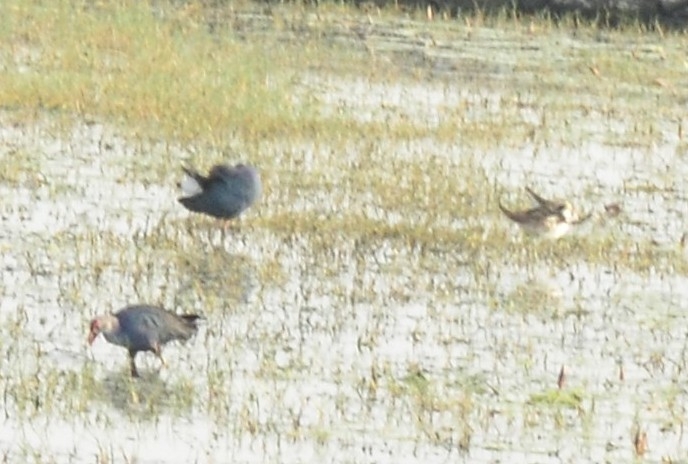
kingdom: Animalia
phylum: Chordata
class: Aves
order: Gruiformes
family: Rallidae
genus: Porphyrio
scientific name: Porphyrio porphyrio
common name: Purple swamphen
